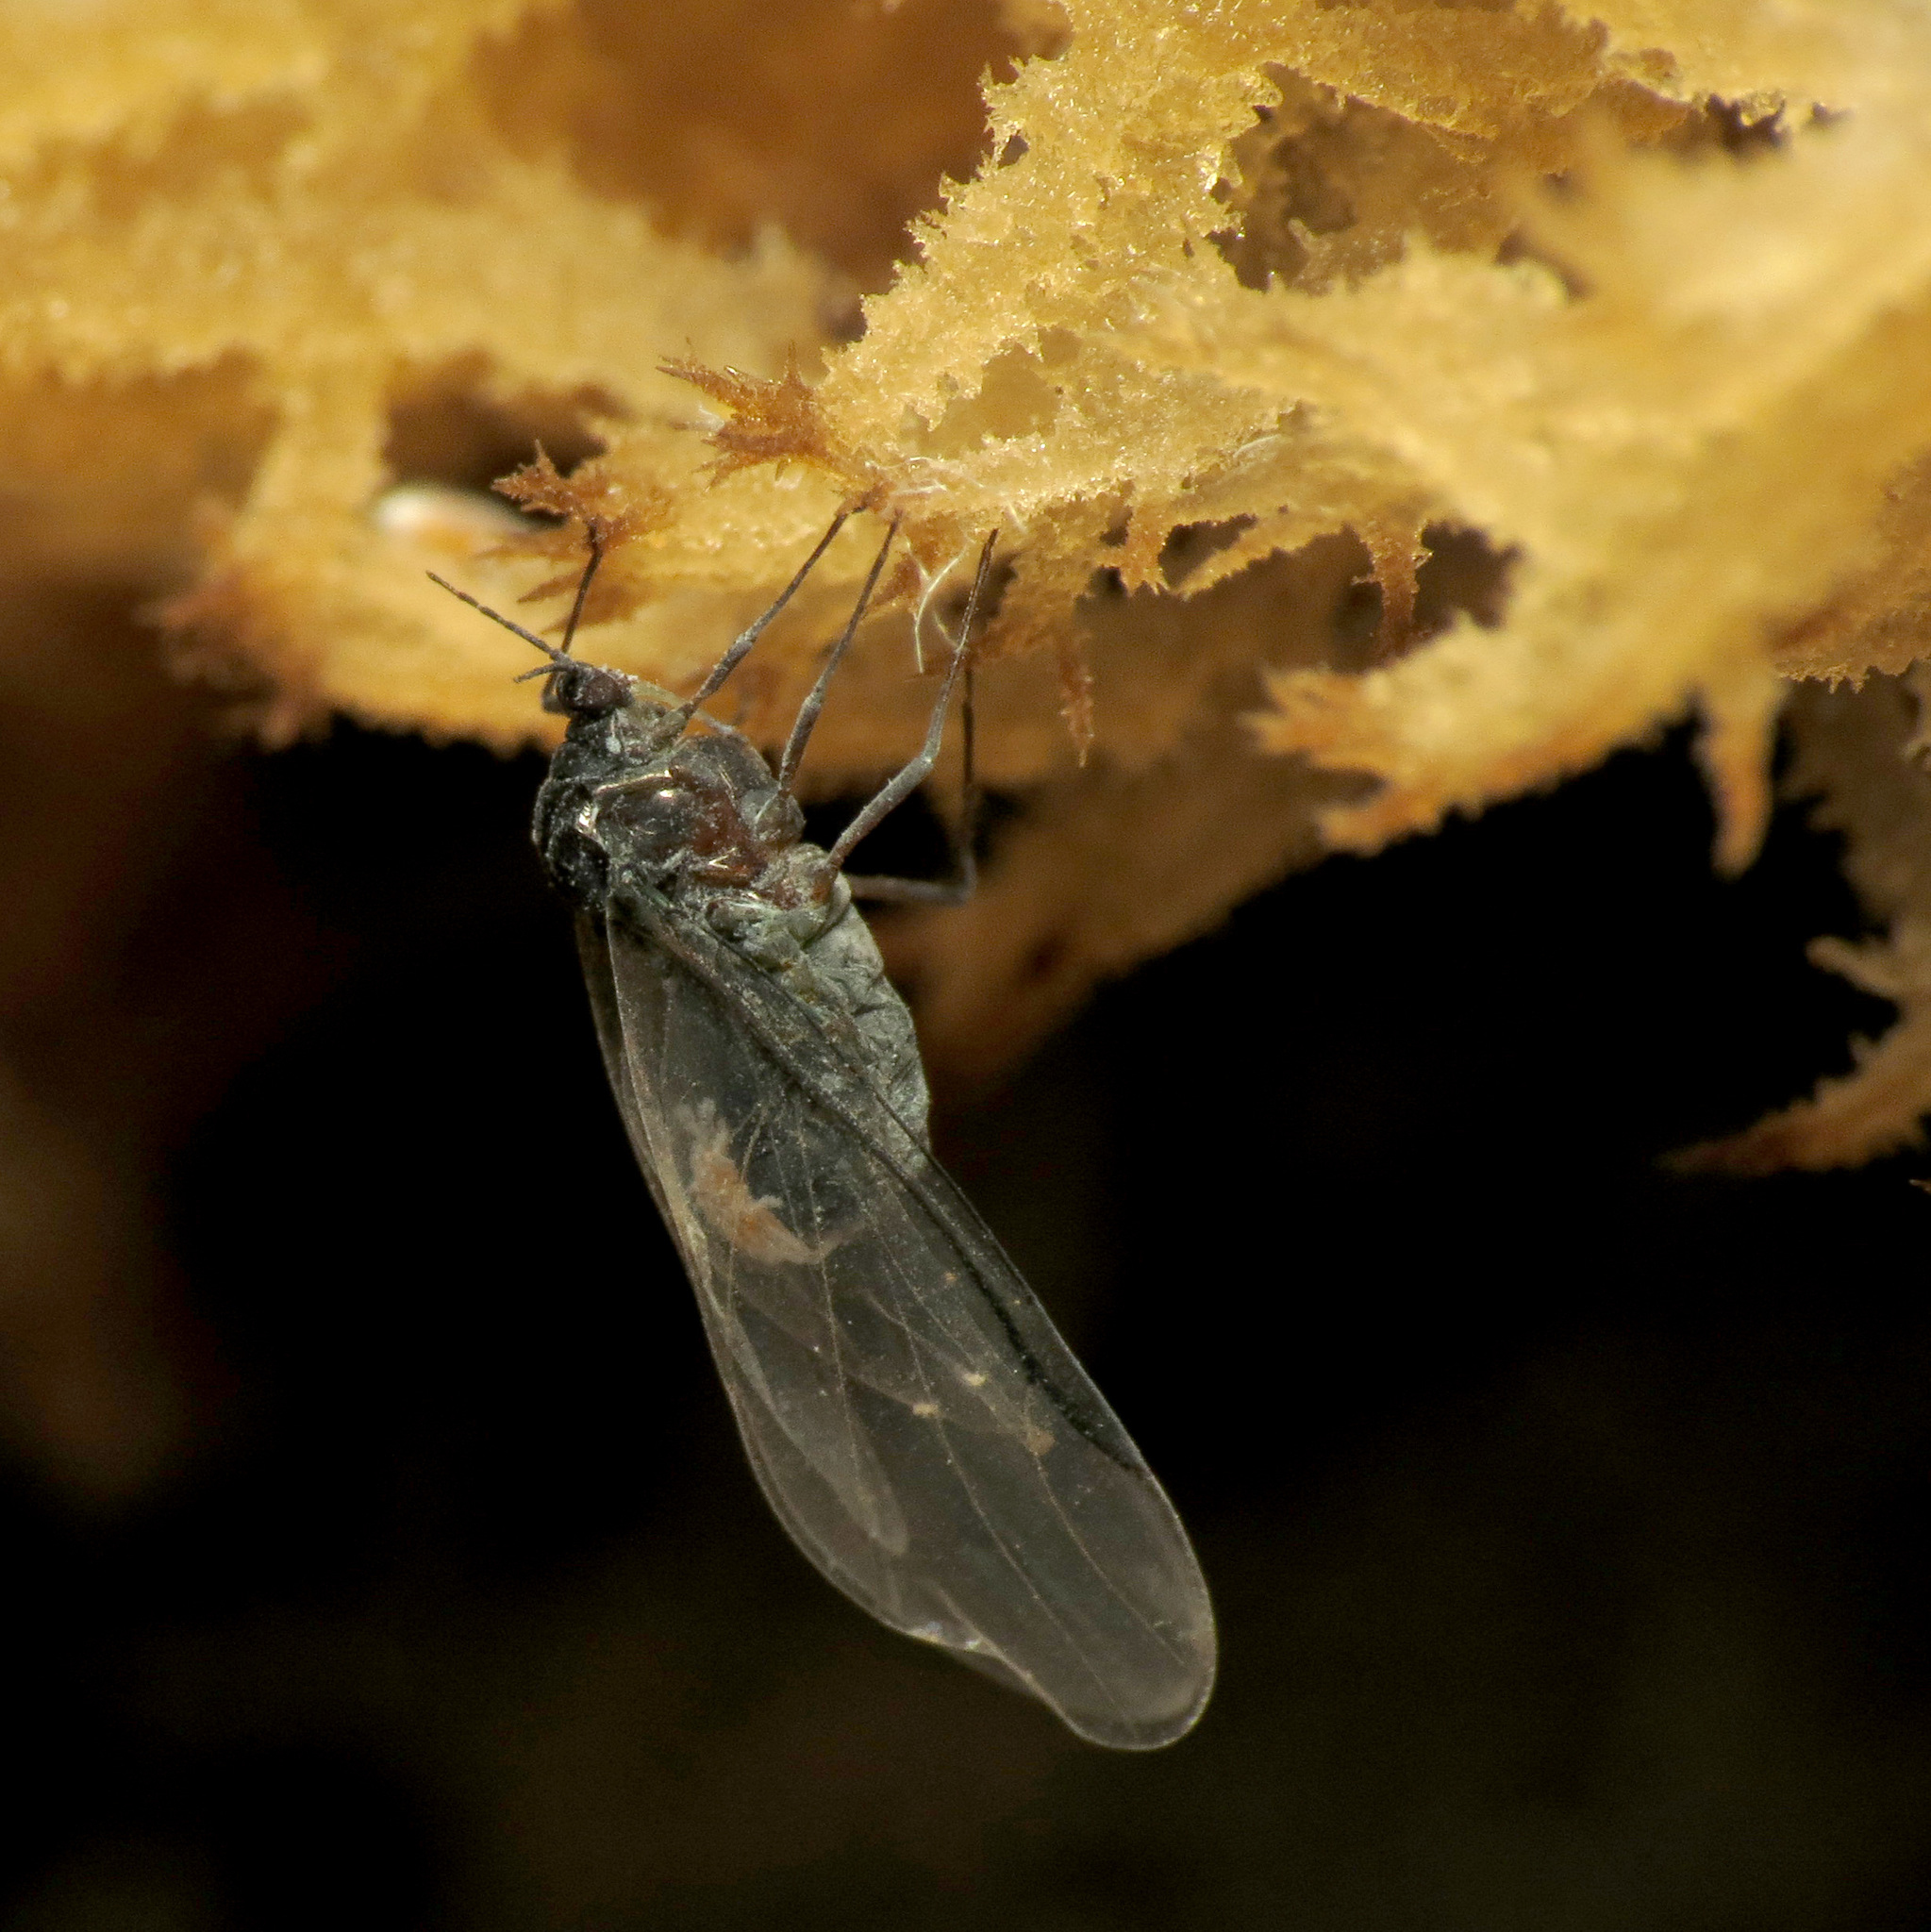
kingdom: Animalia
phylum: Arthropoda
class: Insecta
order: Hemiptera
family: Aphididae
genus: Grylloprociphilus
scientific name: Grylloprociphilus imbricator
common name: Beech blight aphid
